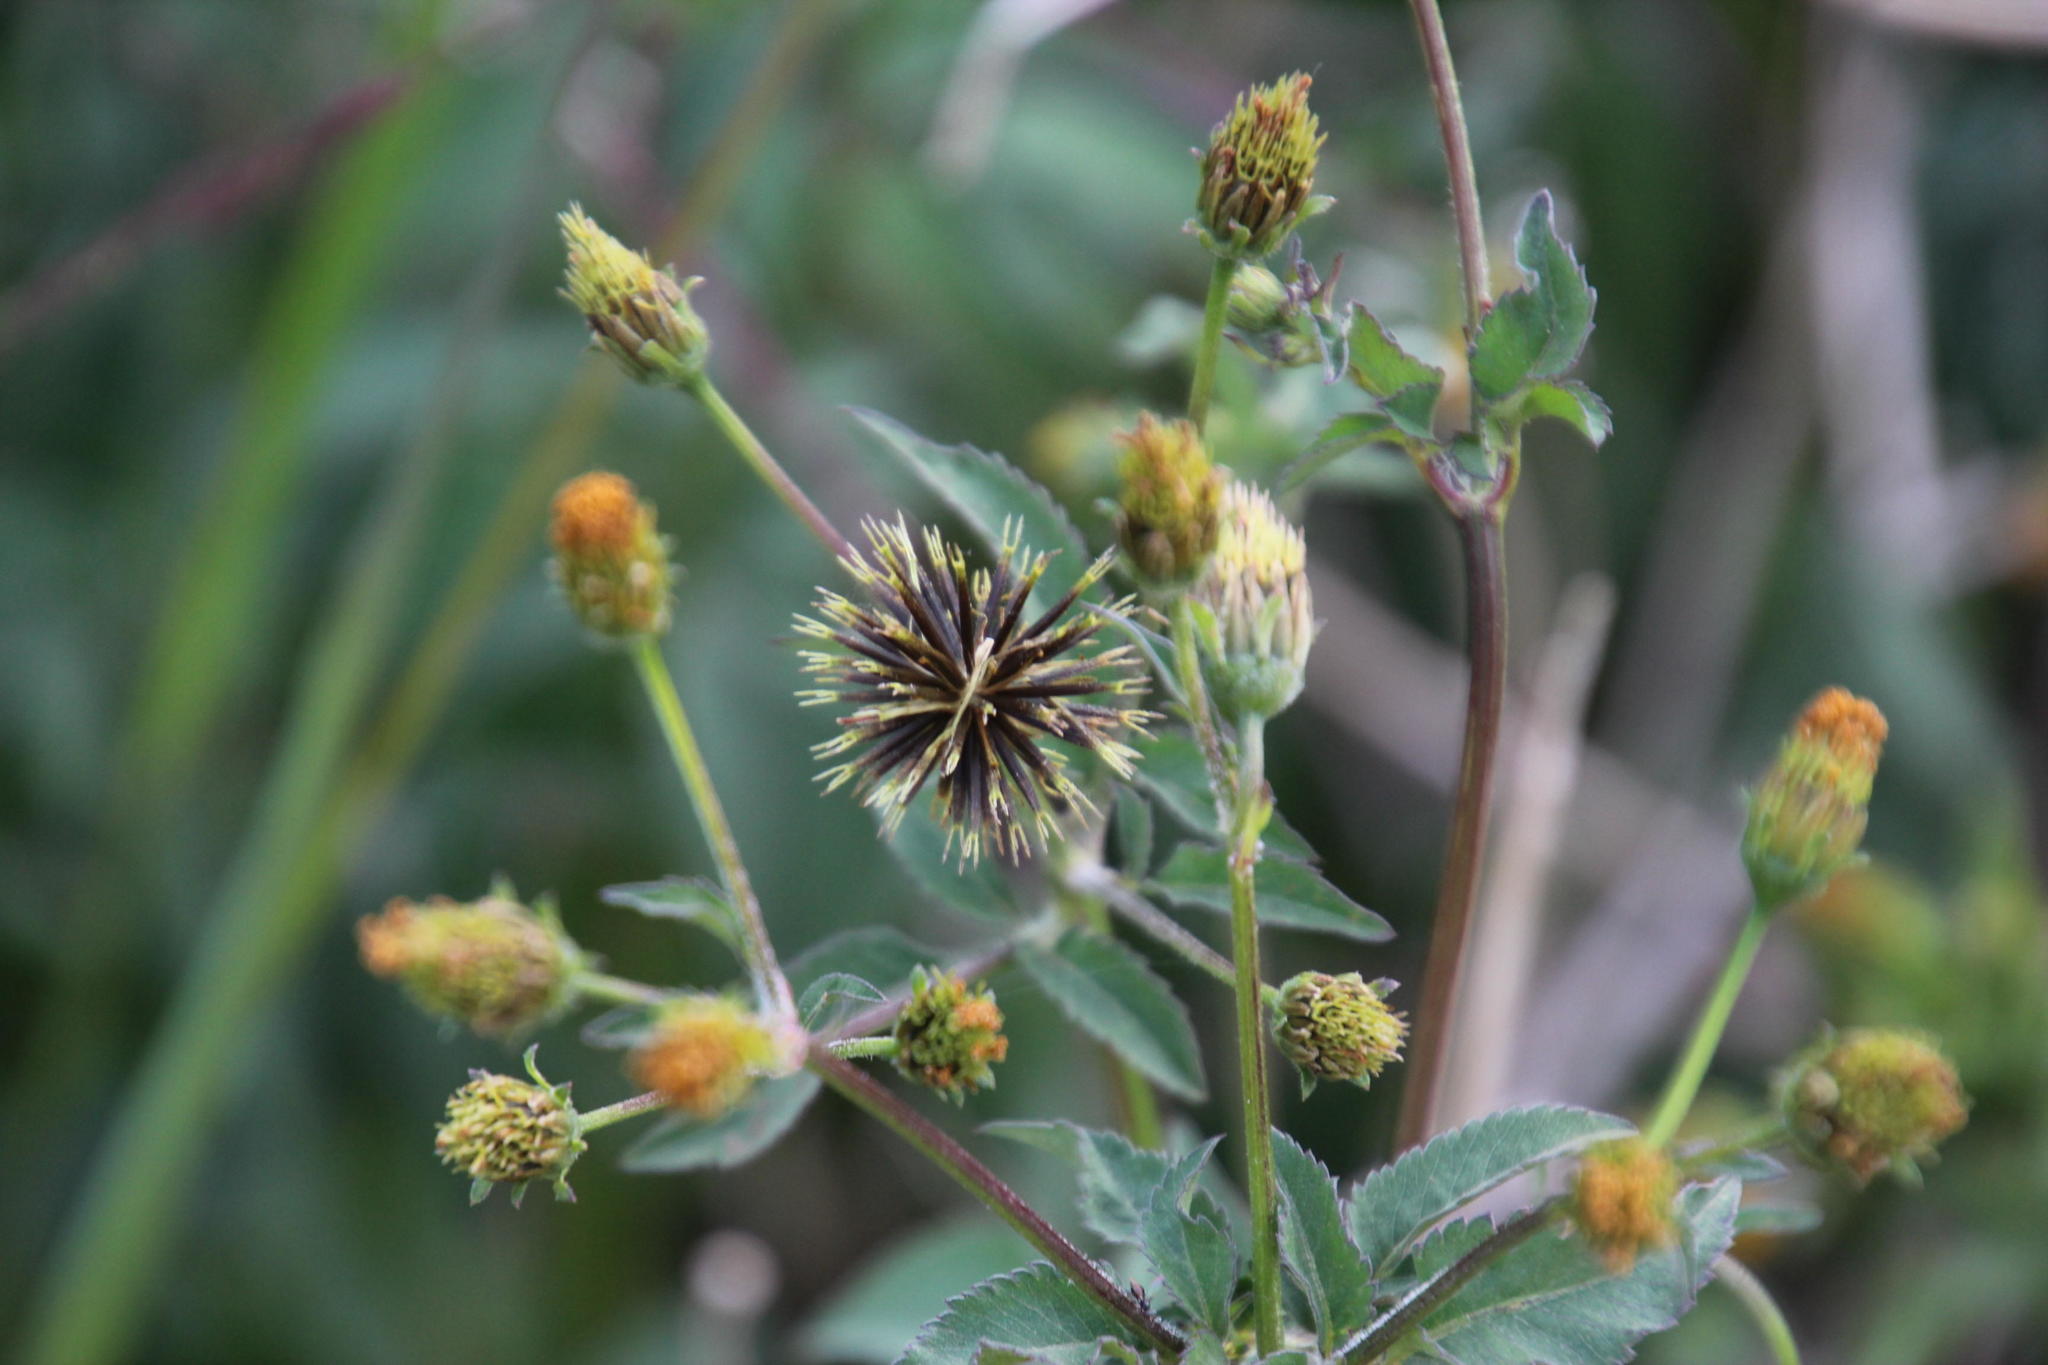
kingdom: Plantae
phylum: Tracheophyta
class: Magnoliopsida
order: Asterales
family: Asteraceae
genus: Bidens
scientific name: Bidens pilosa
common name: Black-jack
